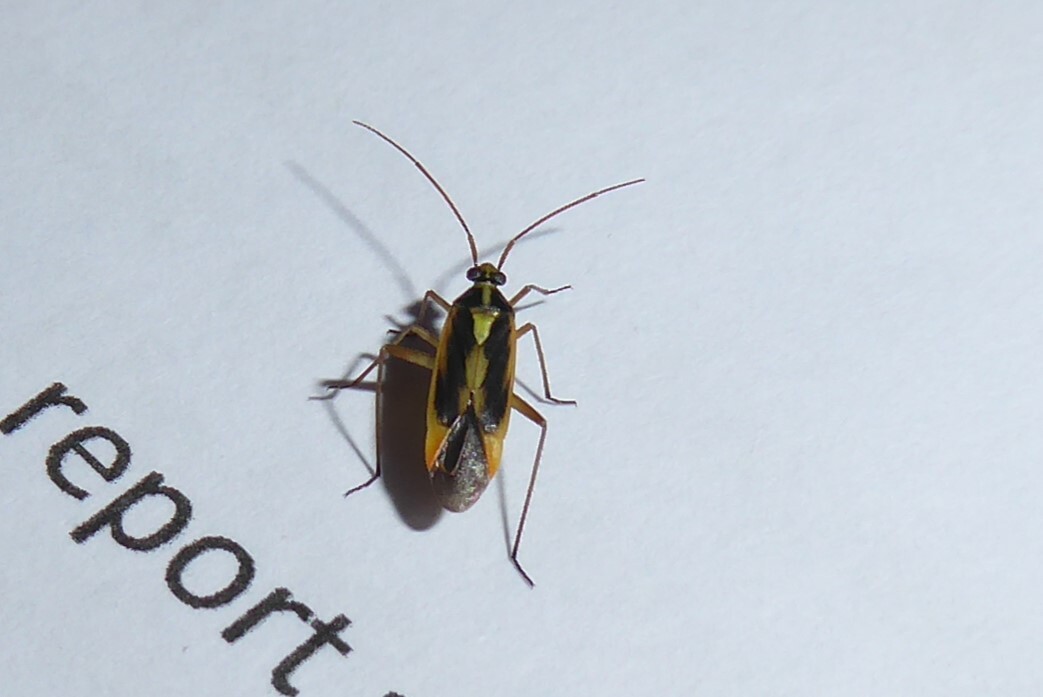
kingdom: Animalia
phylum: Arthropoda
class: Insecta
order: Hemiptera
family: Miridae
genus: Stenotus
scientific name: Stenotus binotatus
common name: Plant bug
